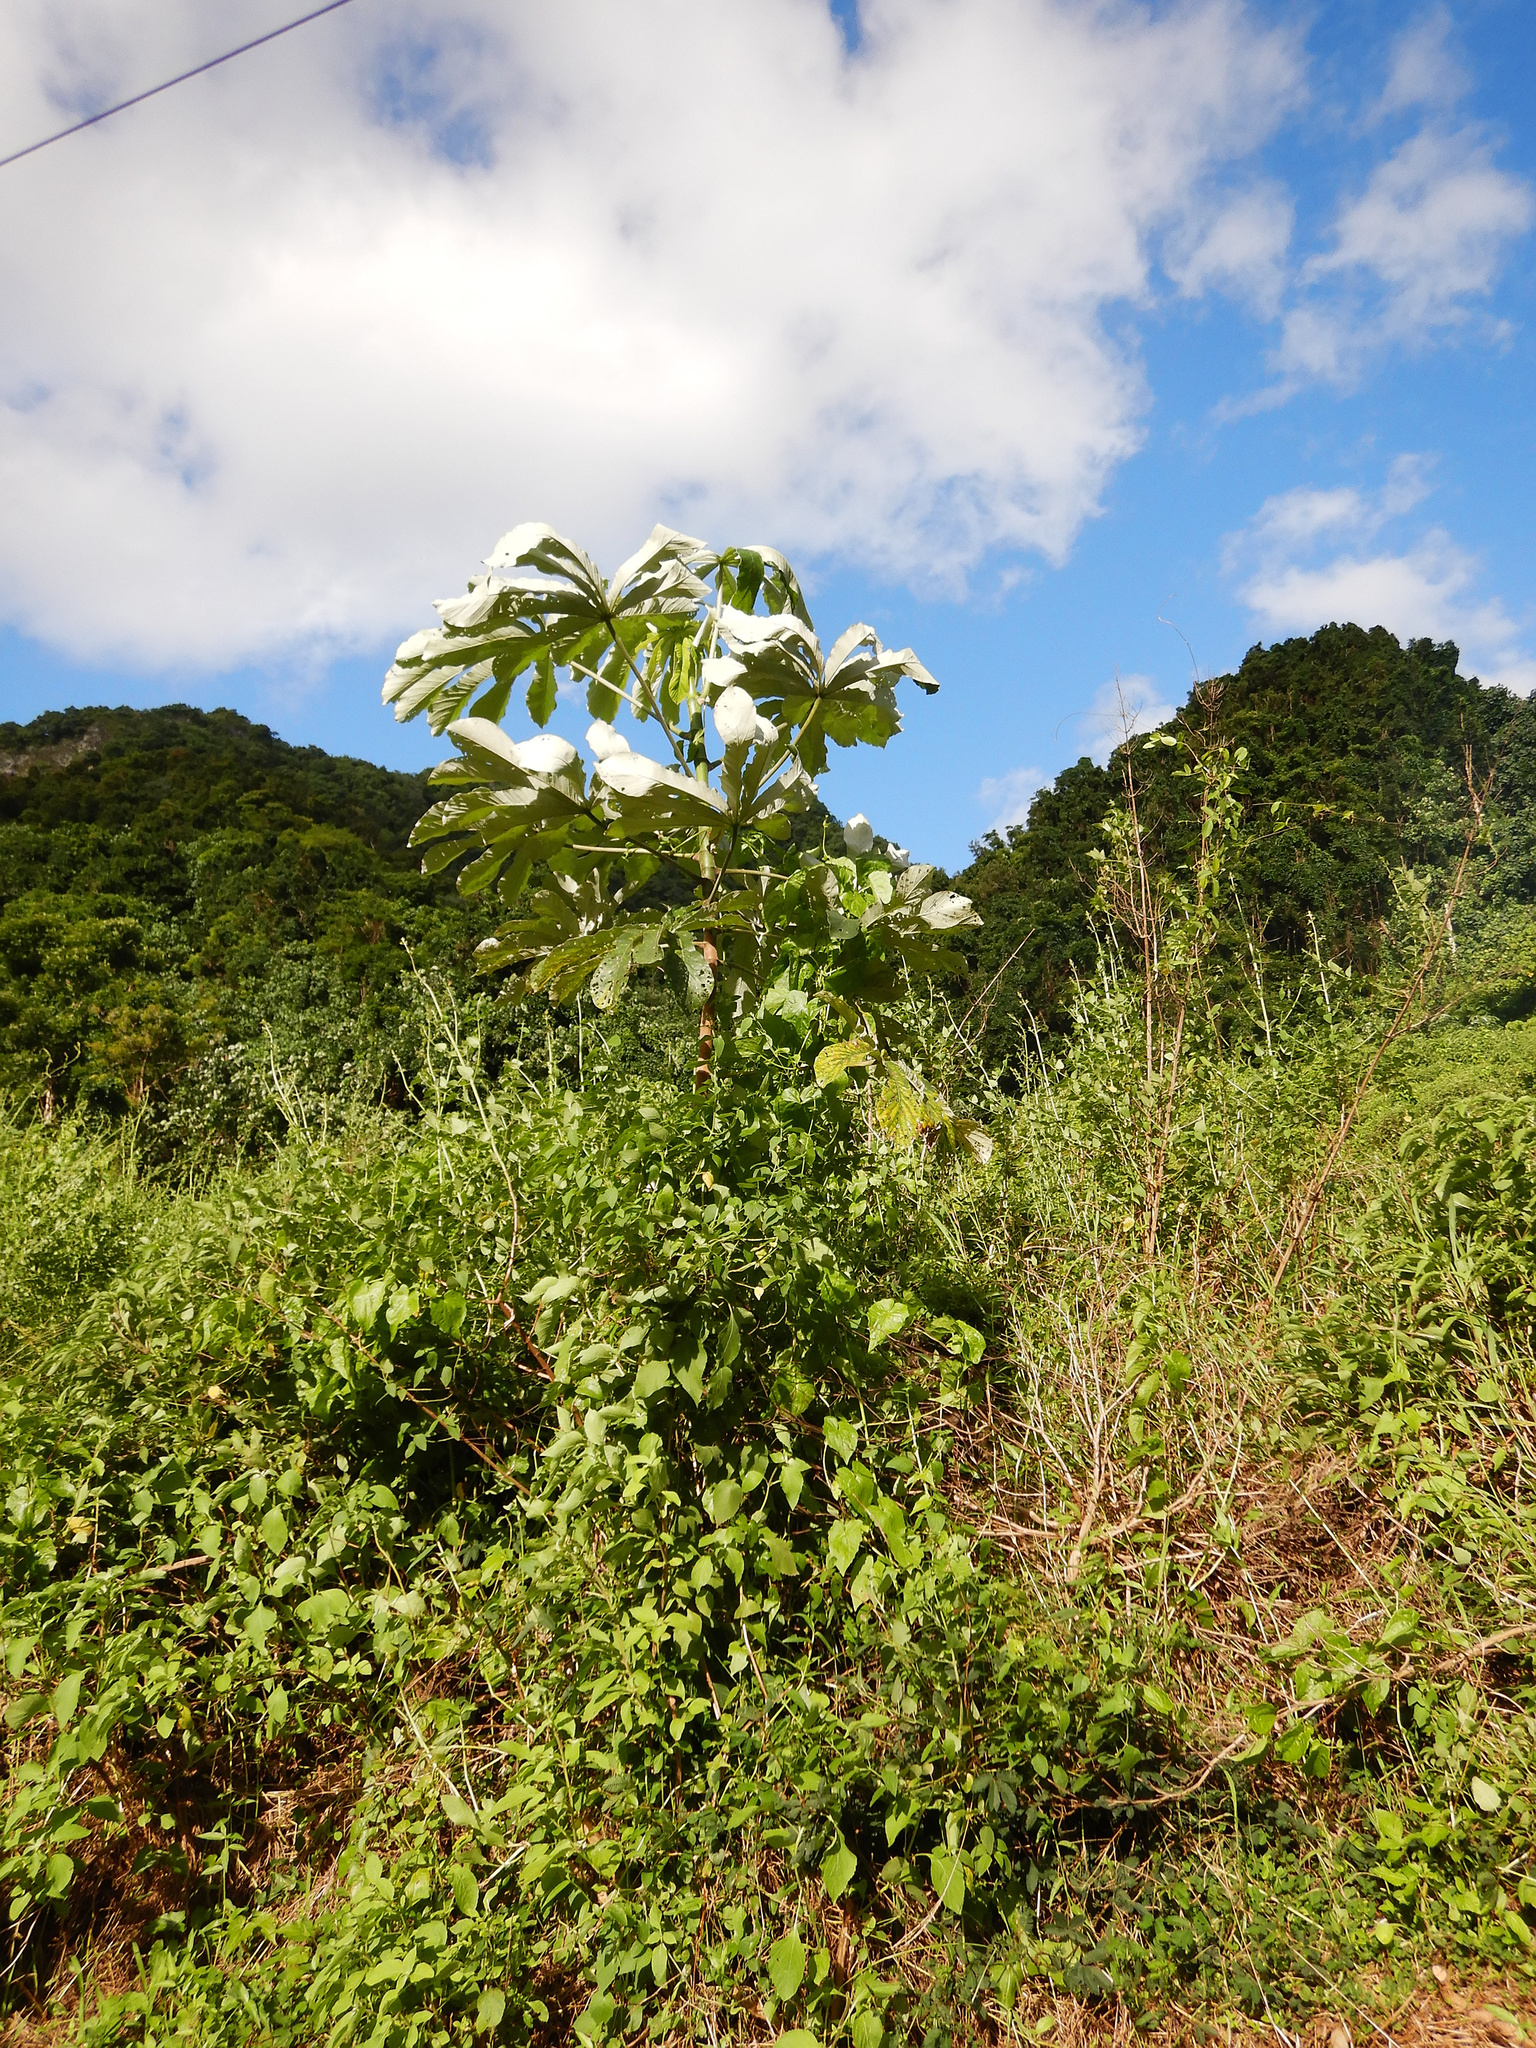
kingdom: Plantae
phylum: Tracheophyta
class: Magnoliopsida
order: Rosales
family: Urticaceae
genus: Cecropia
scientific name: Cecropia pachystachya
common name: Ambay pumpwood
